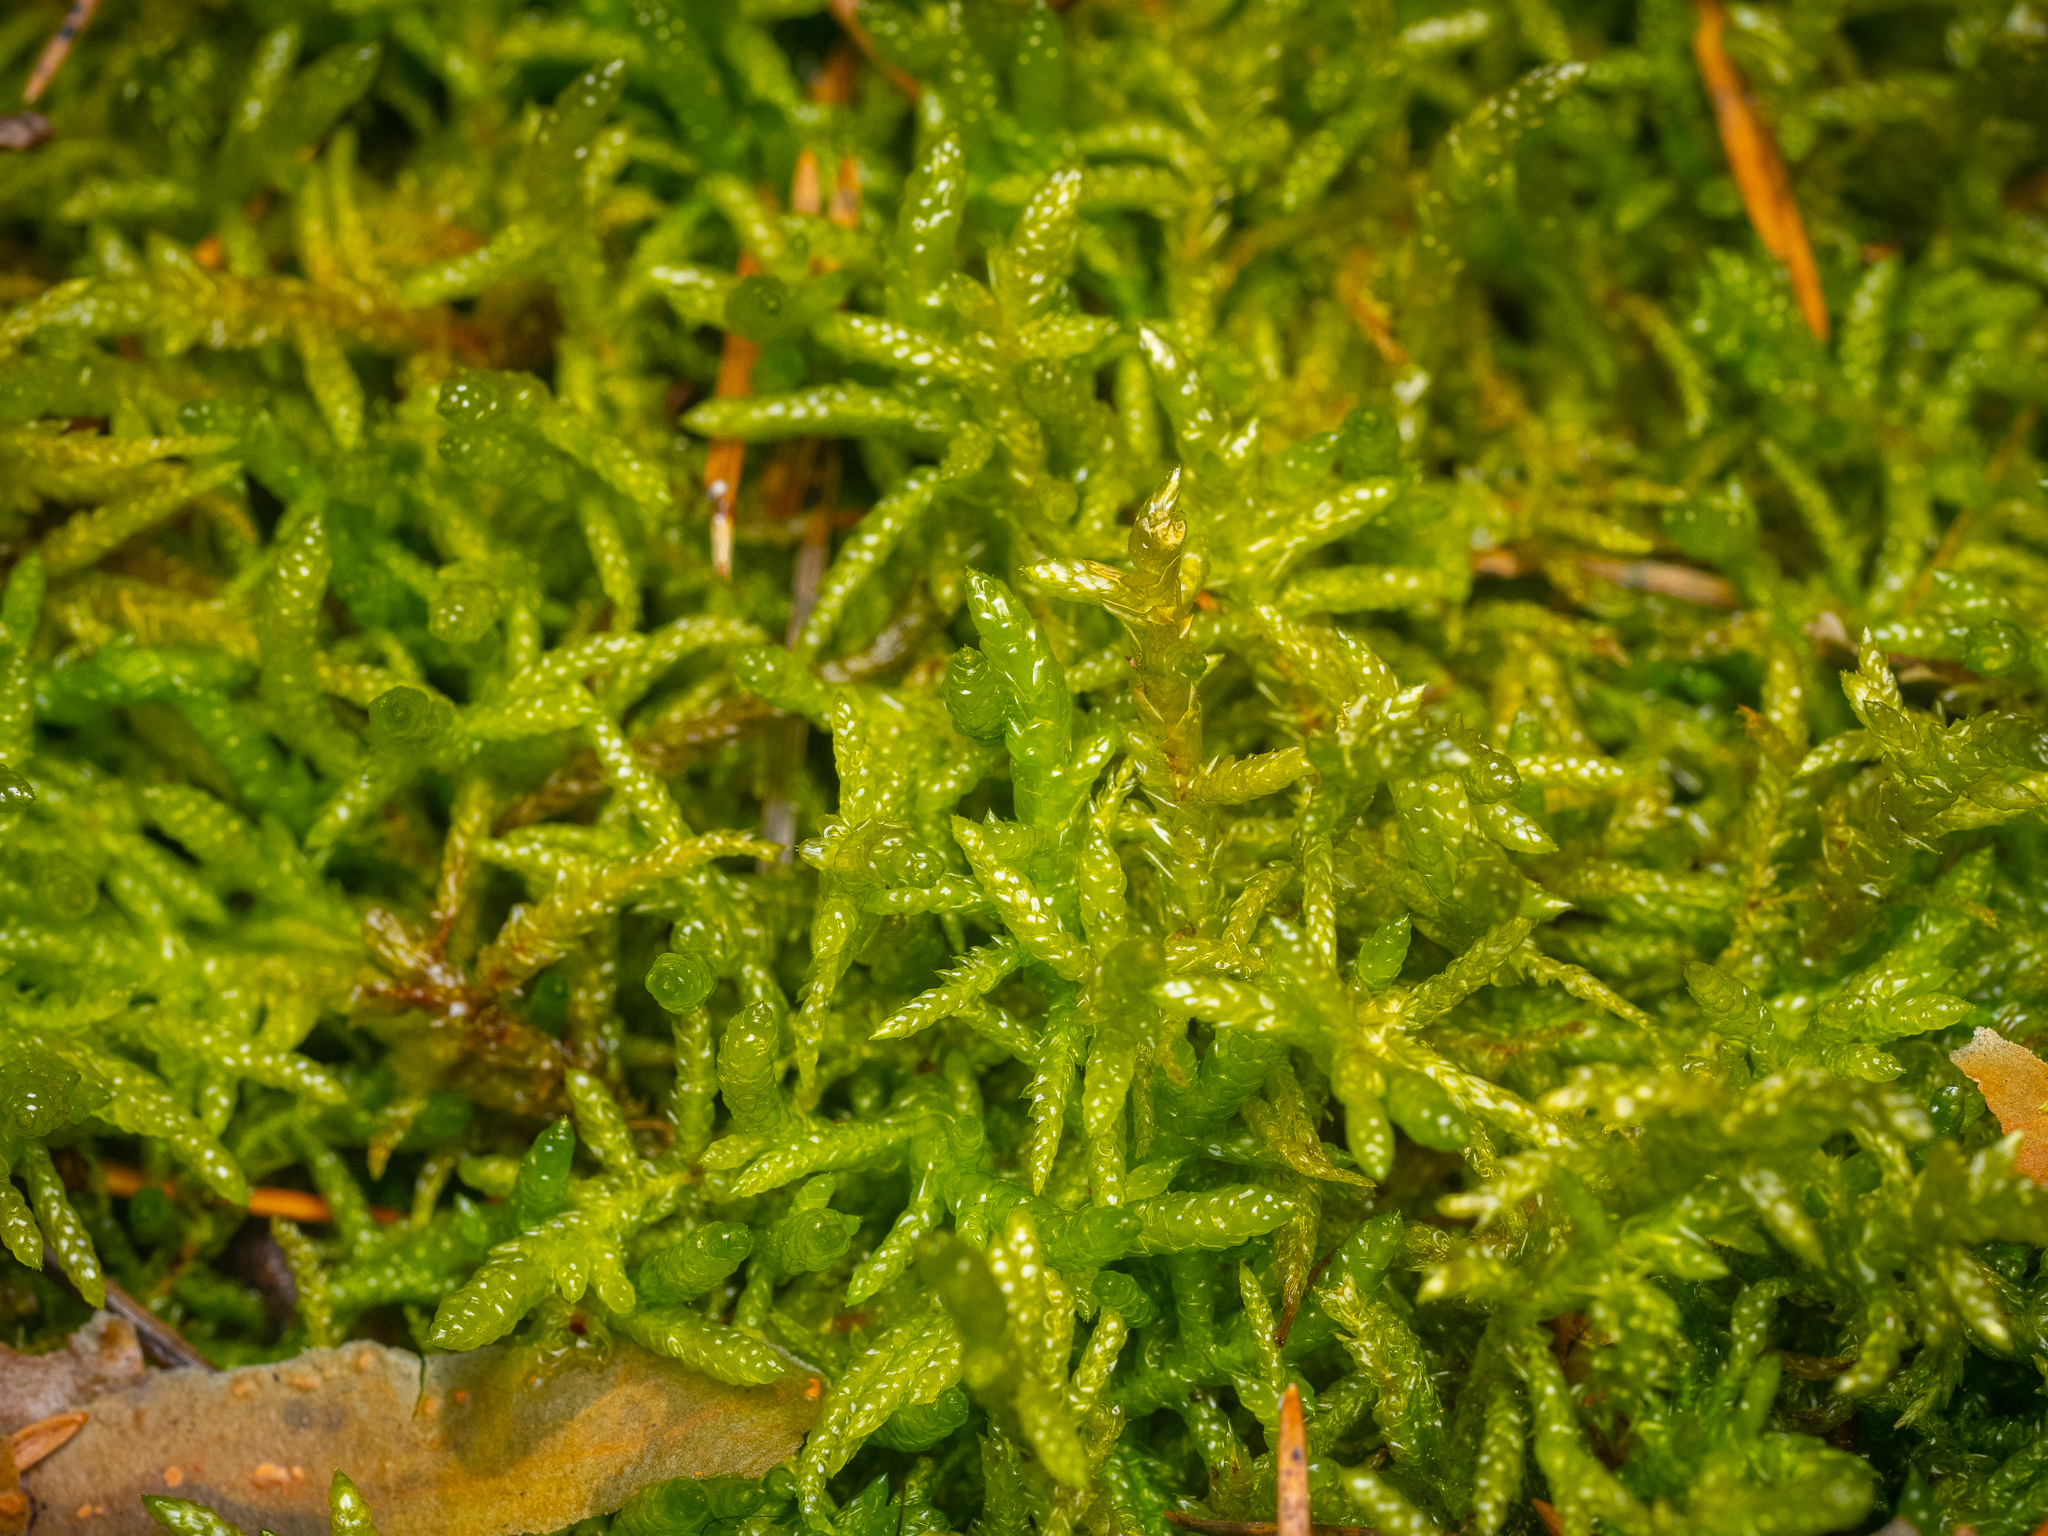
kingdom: Plantae
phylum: Bryophyta
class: Bryopsida
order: Hypnales
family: Brachytheciaceae
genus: Pseudoscleropodium
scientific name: Pseudoscleropodium purum
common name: Neat feather-moss
